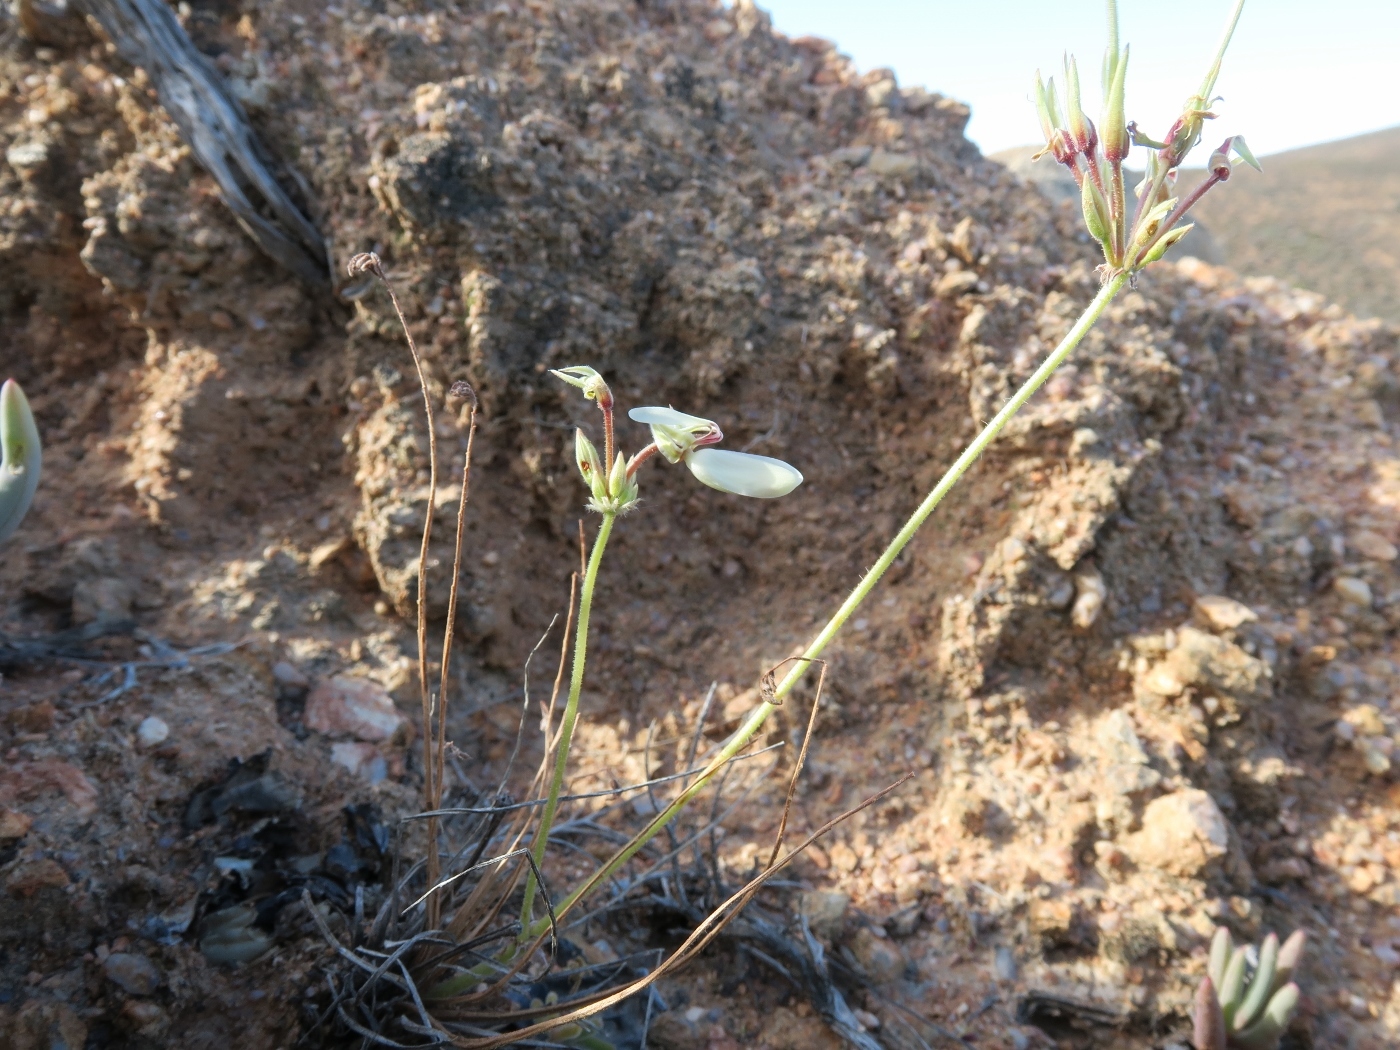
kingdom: Plantae
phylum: Tracheophyta
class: Magnoliopsida
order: Geraniales
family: Geraniaceae
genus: Pelargonium
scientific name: Pelargonium rapaceum
